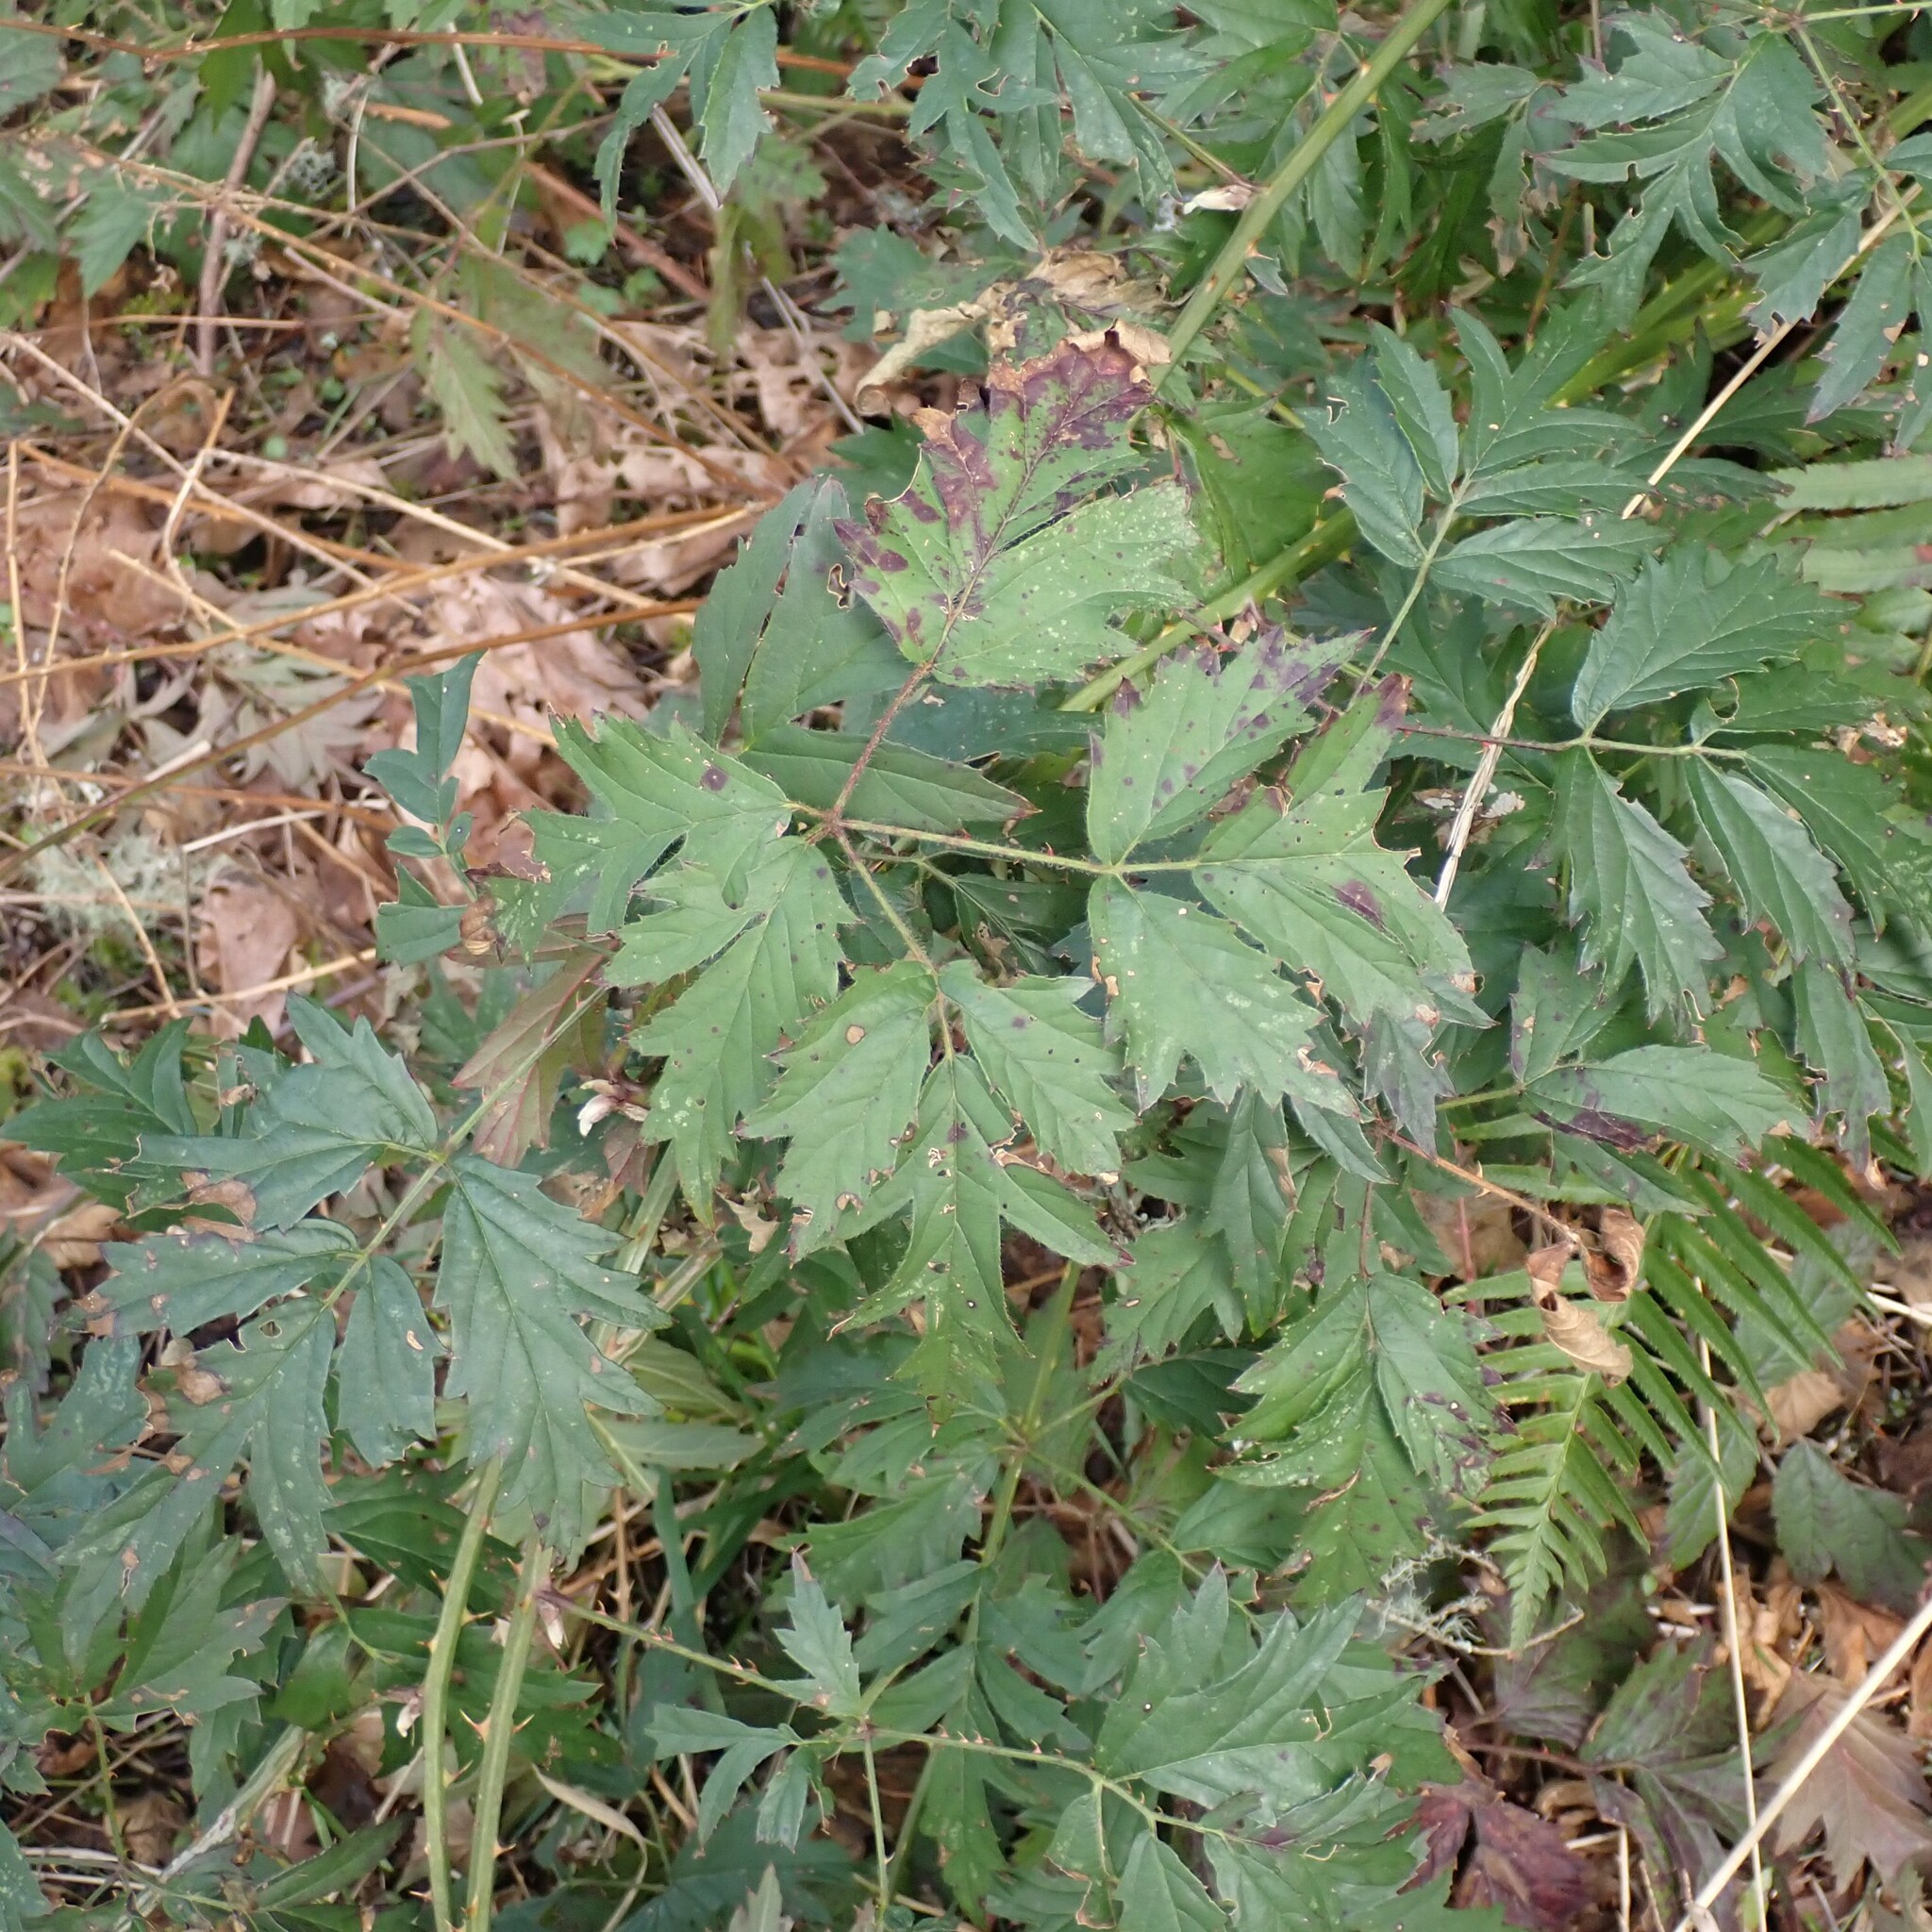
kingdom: Plantae
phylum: Tracheophyta
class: Magnoliopsida
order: Rosales
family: Rosaceae
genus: Rubus
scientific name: Rubus laciniatus
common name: Evergreen blackberry
